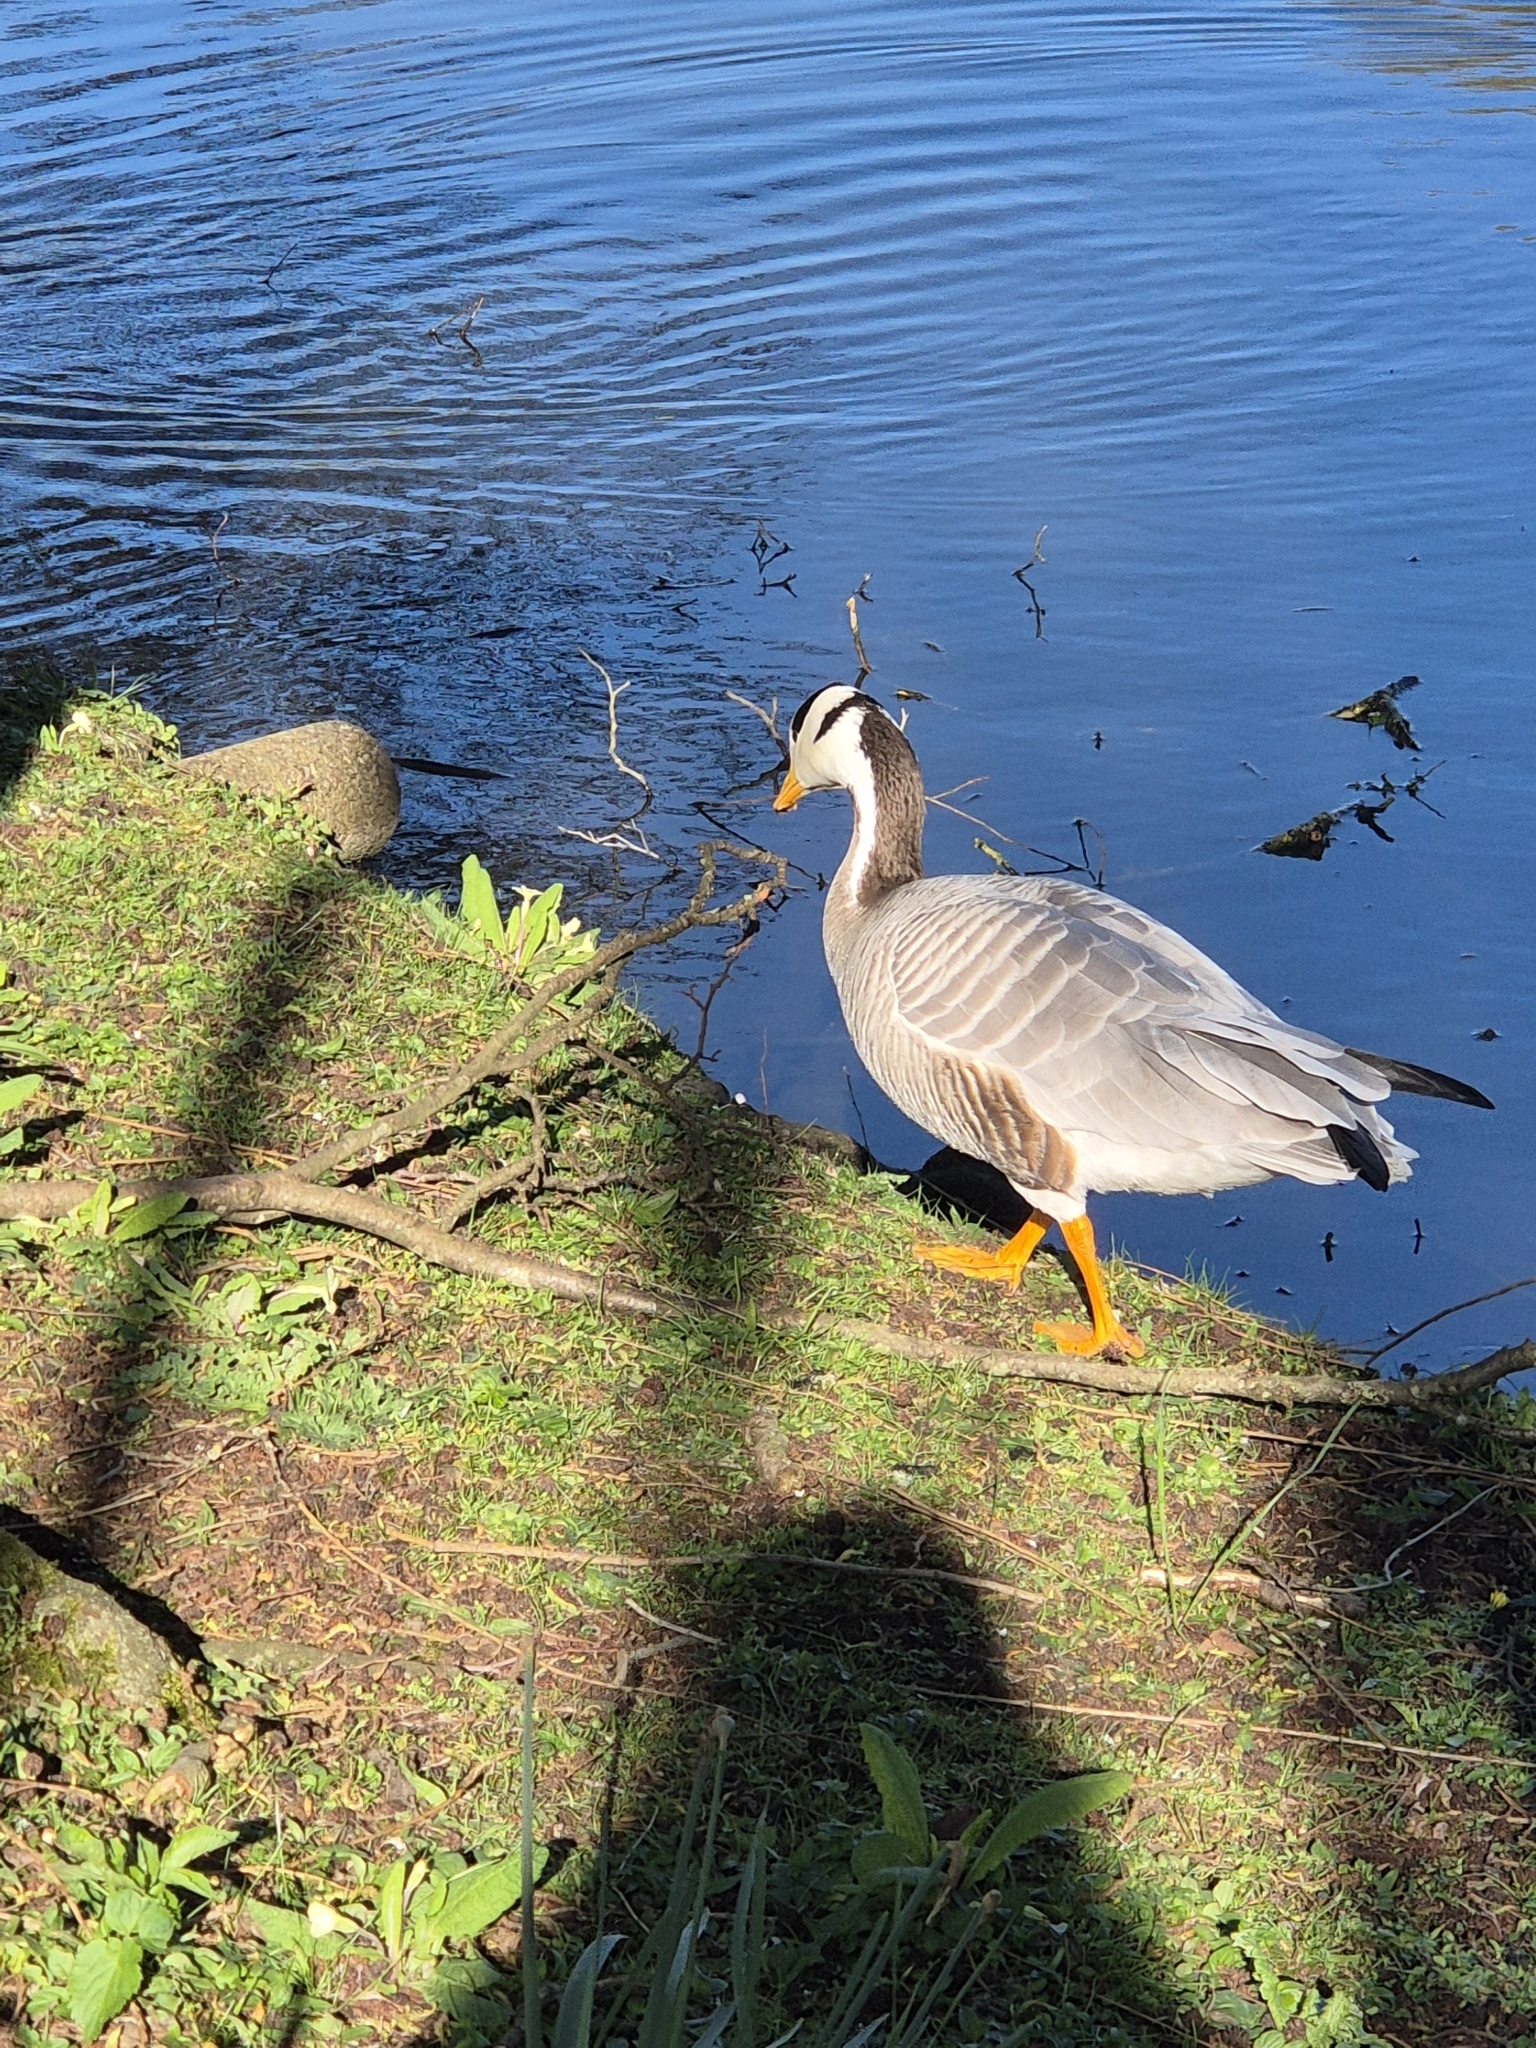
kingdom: Animalia
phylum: Chordata
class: Aves
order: Anseriformes
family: Anatidae
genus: Anser
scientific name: Anser indicus
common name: Bar-headed goose
